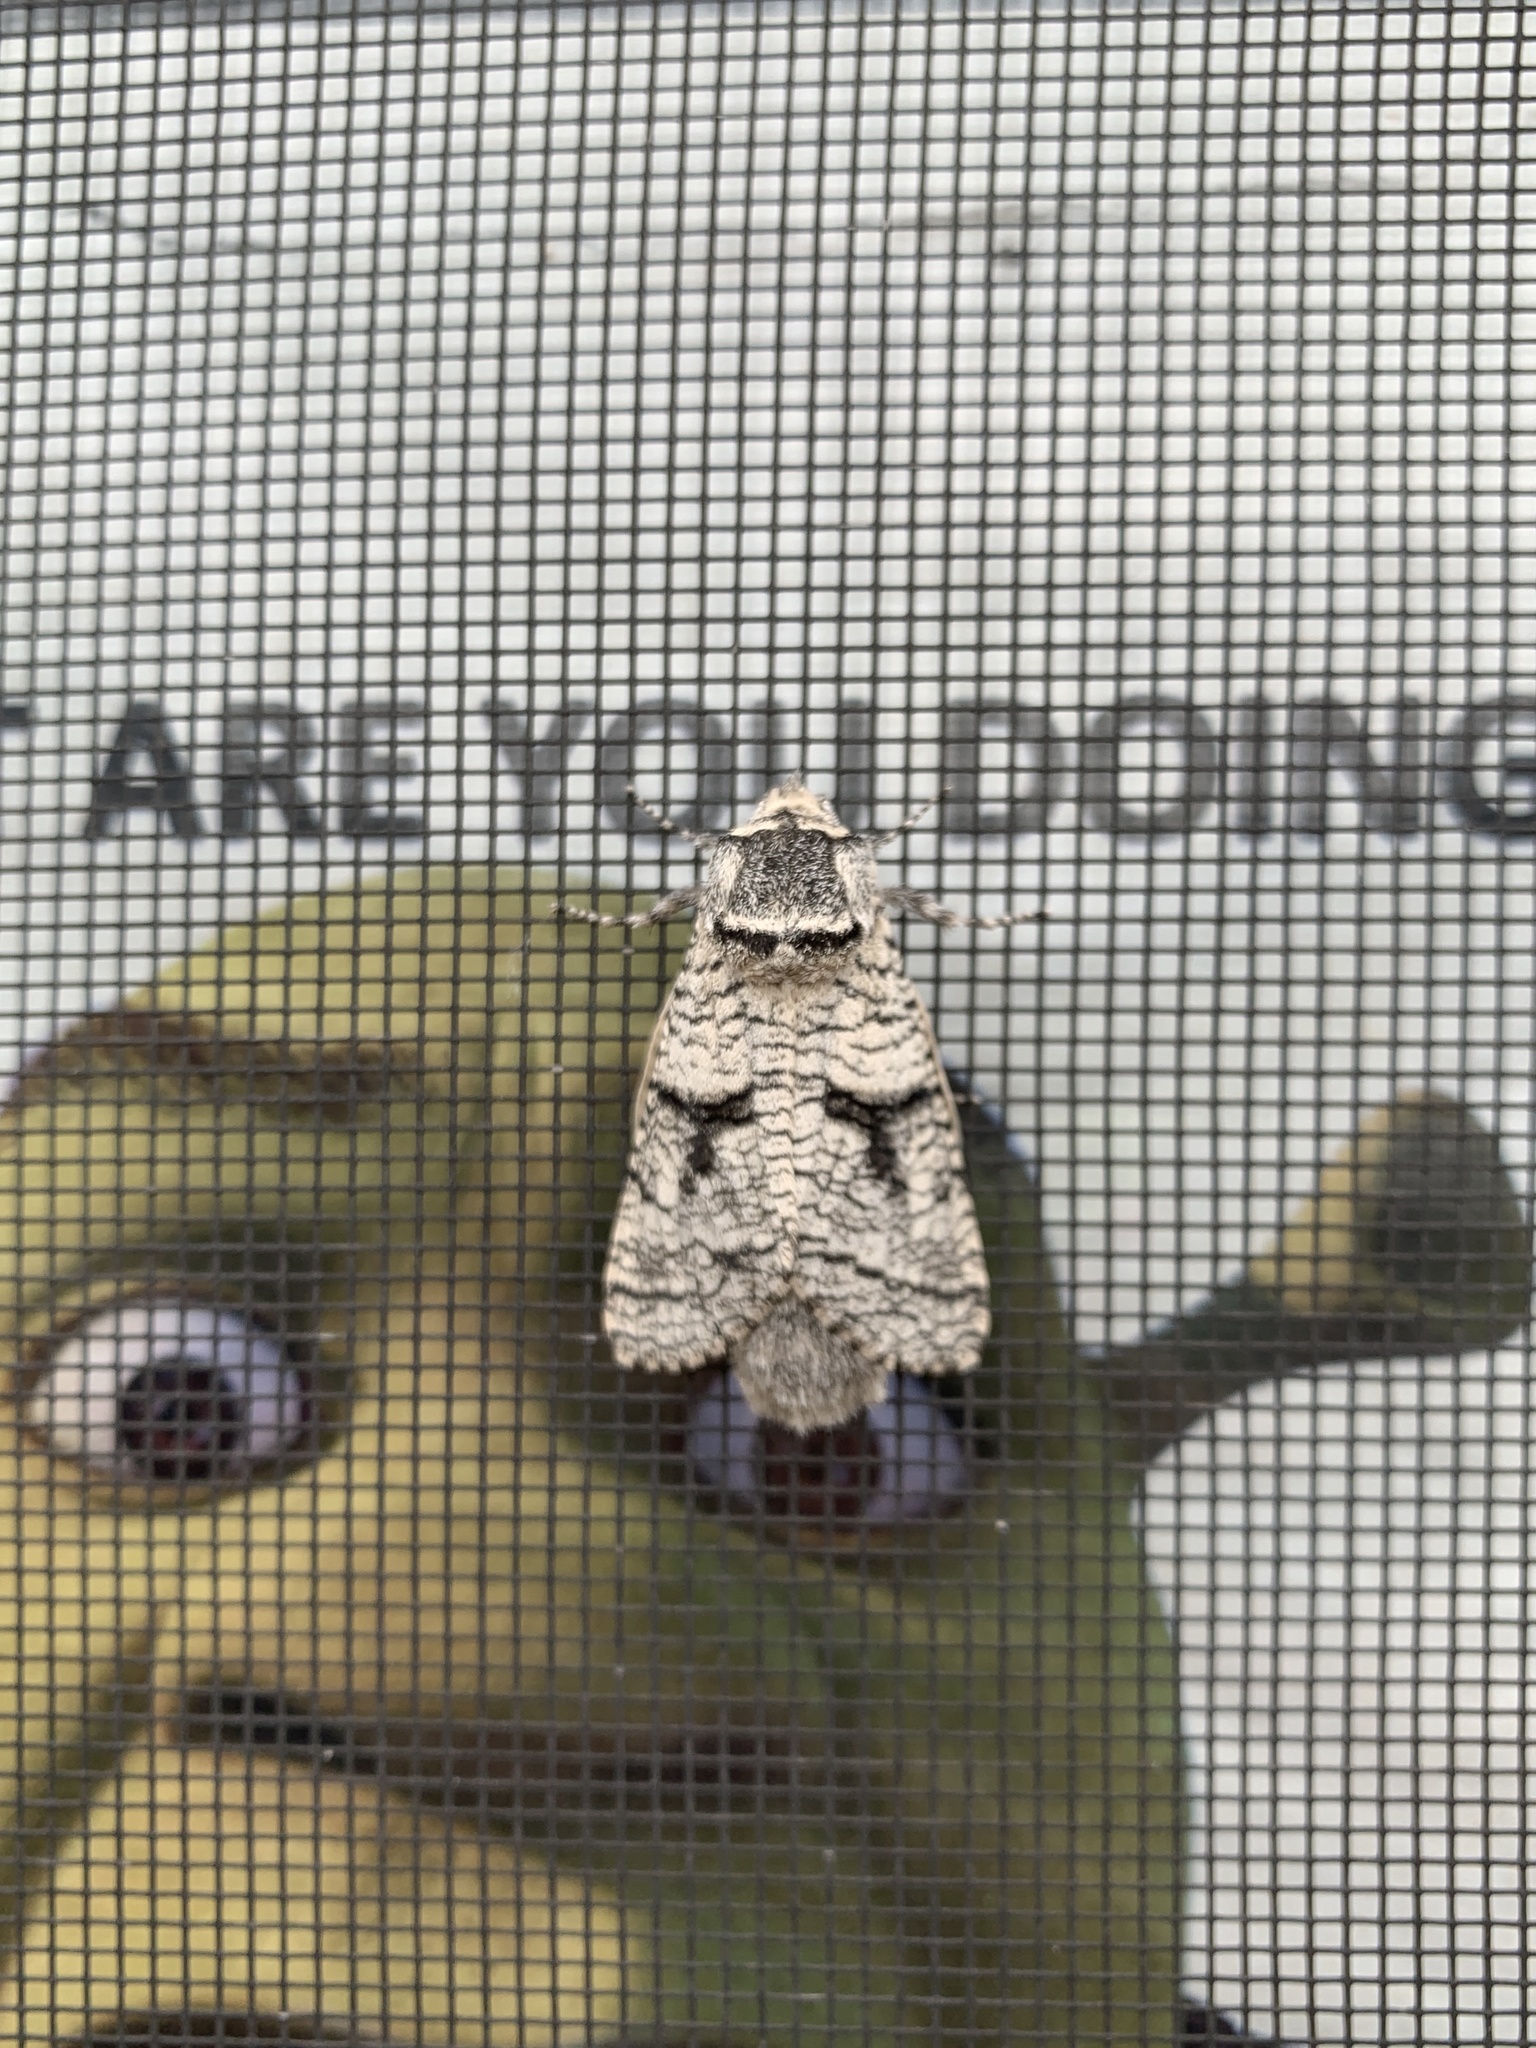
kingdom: Animalia
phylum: Arthropoda
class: Insecta
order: Lepidoptera
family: Cossidae
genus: Acossus
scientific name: Acossus populi
